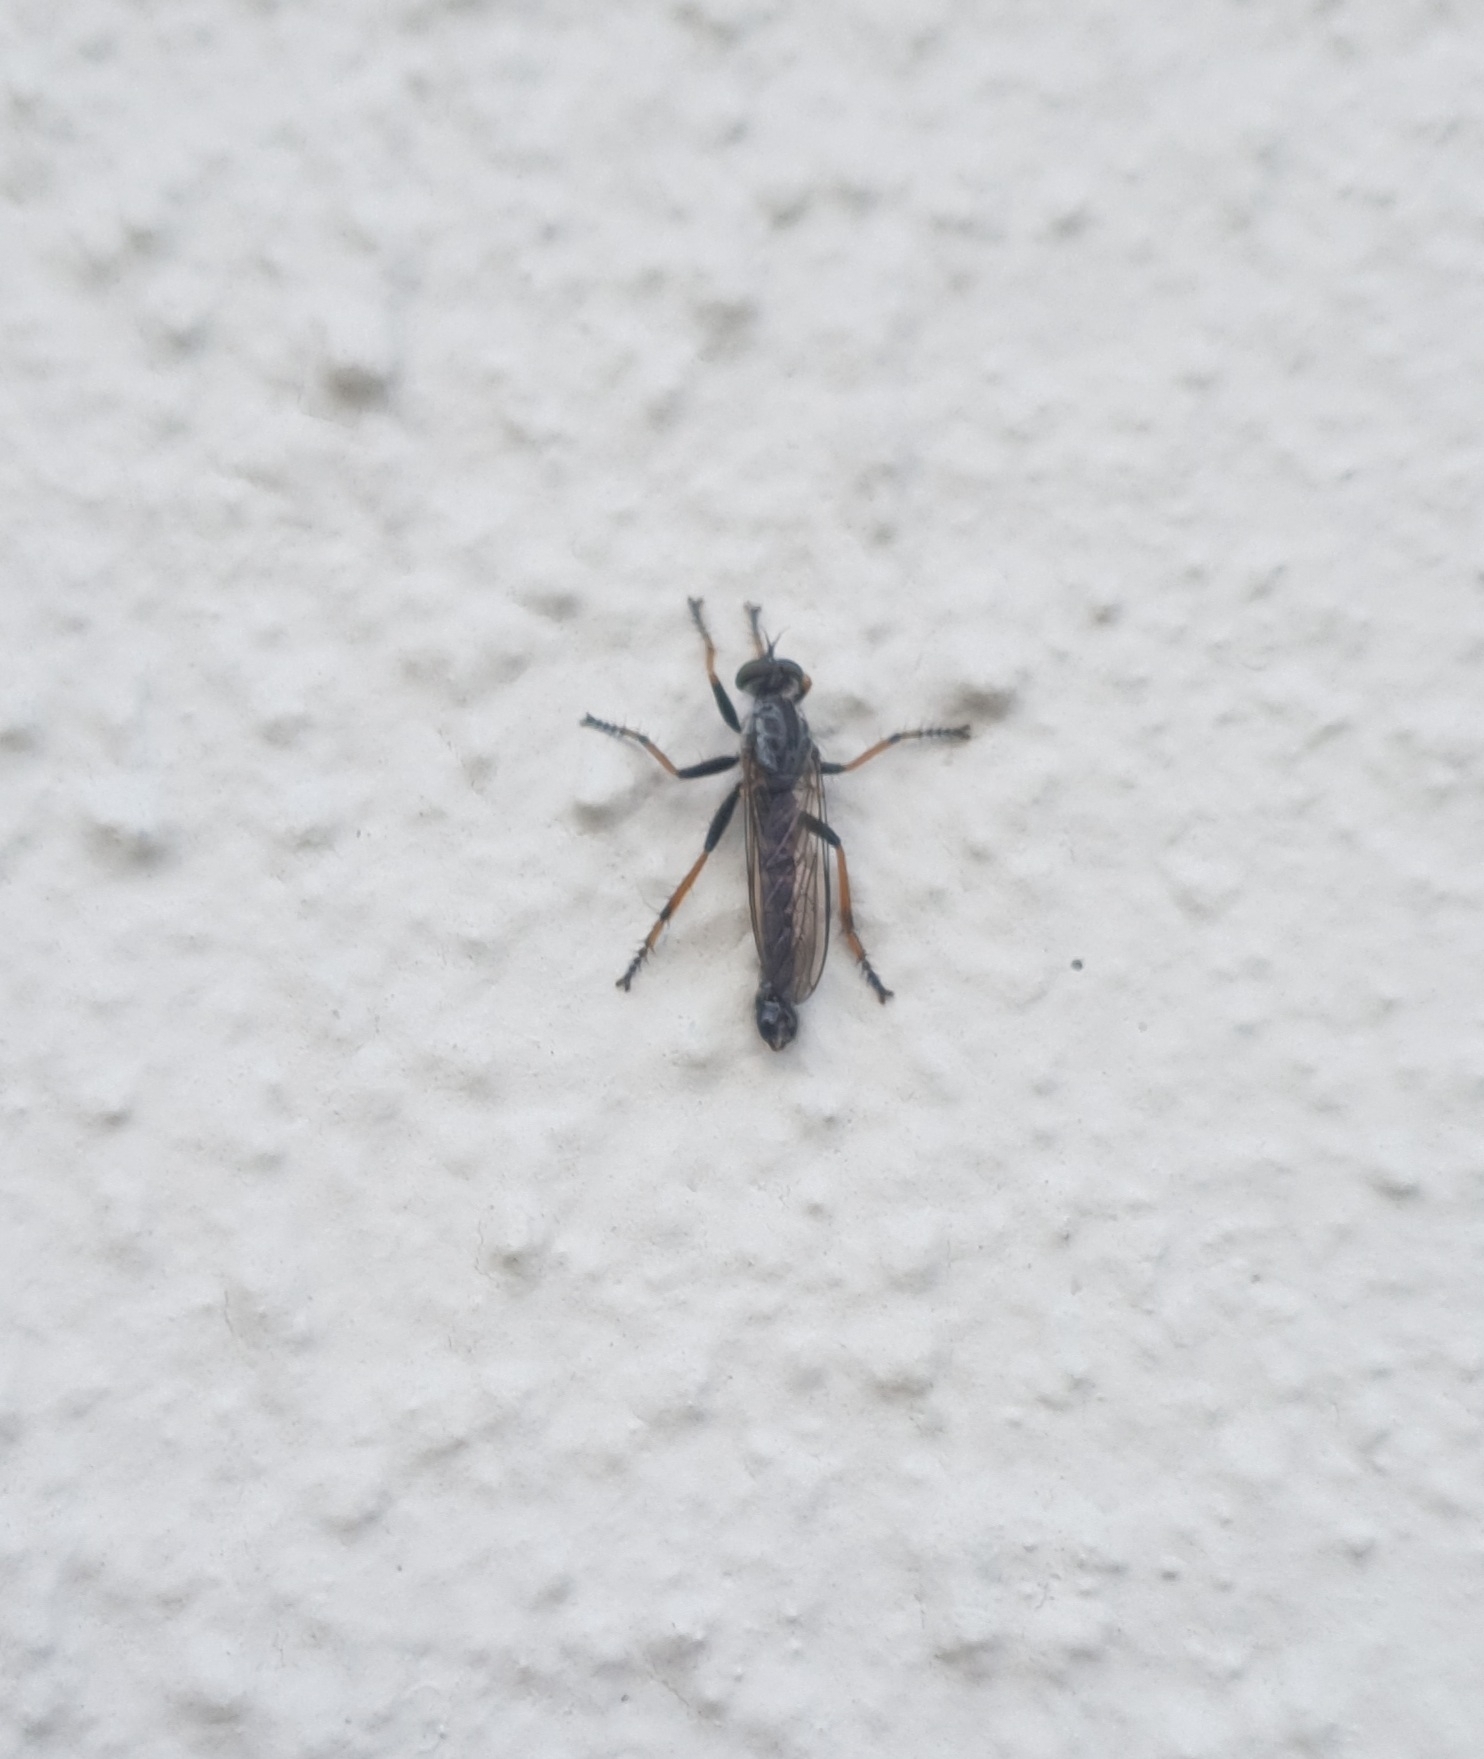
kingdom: Animalia
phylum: Arthropoda
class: Insecta
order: Diptera
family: Asilidae
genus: Paritamus
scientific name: Paritamus geniculatus
